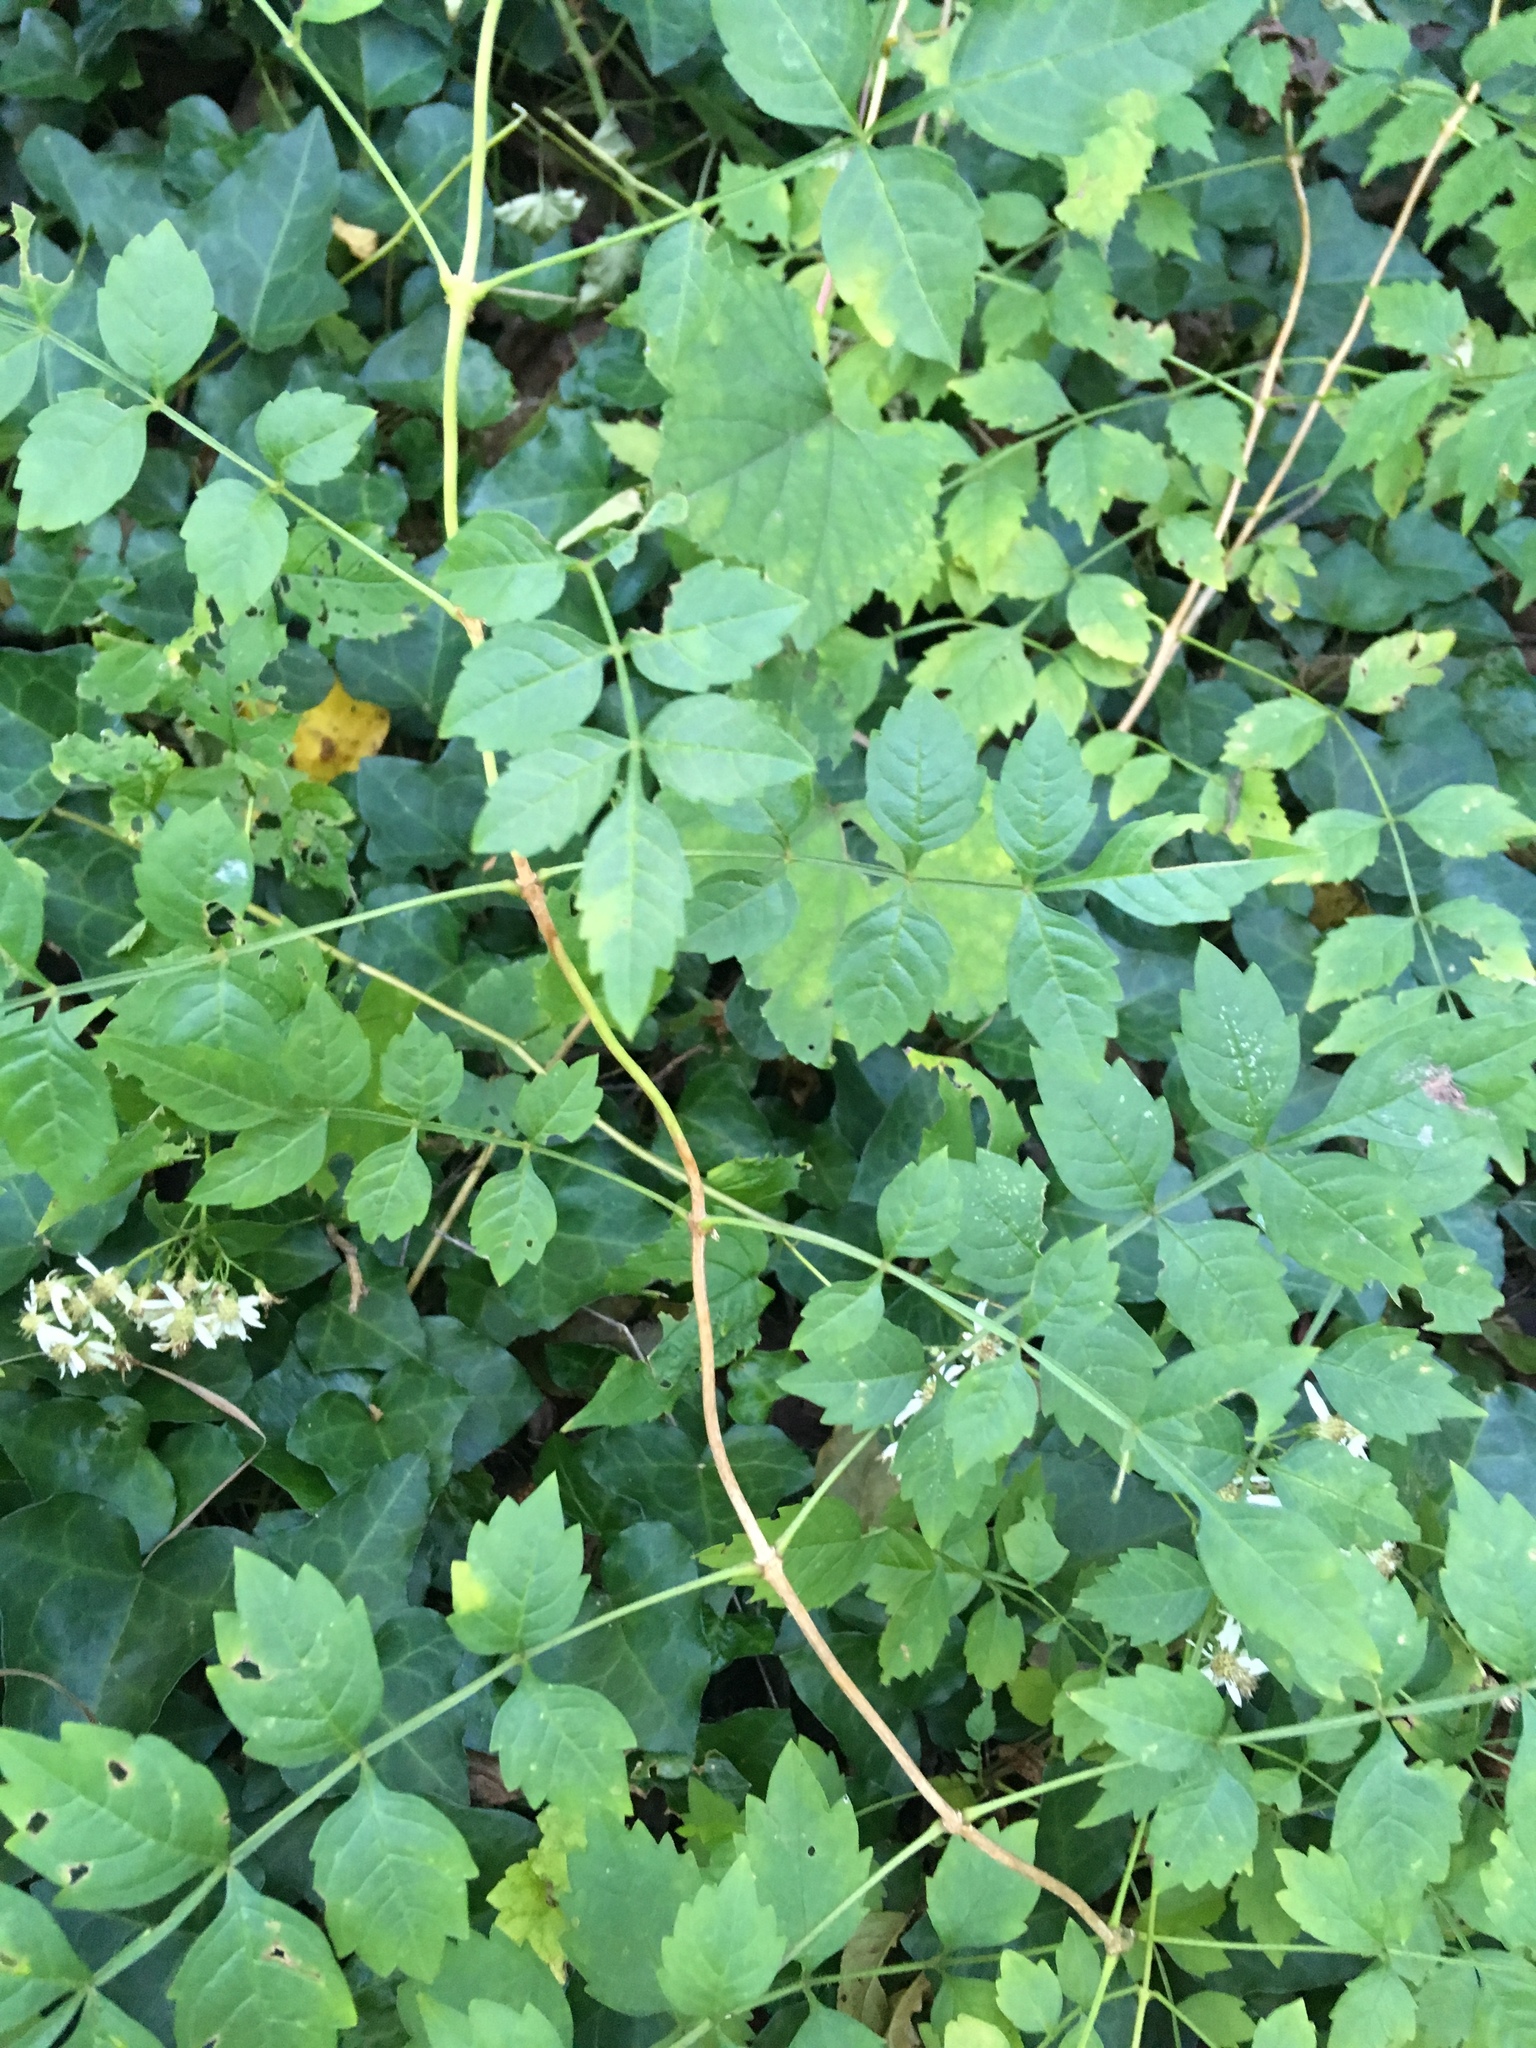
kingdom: Plantae
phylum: Tracheophyta
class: Magnoliopsida
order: Lamiales
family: Bignoniaceae
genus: Campsis
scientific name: Campsis radicans
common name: Trumpet-creeper
